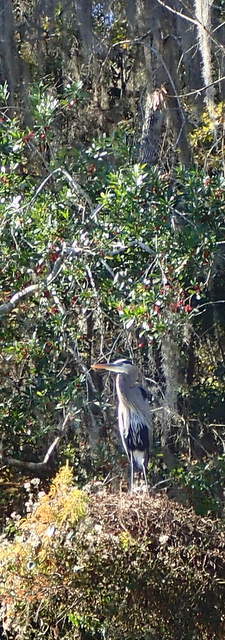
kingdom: Animalia
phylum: Chordata
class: Aves
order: Pelecaniformes
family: Ardeidae
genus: Ardea
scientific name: Ardea herodias
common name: Great blue heron
